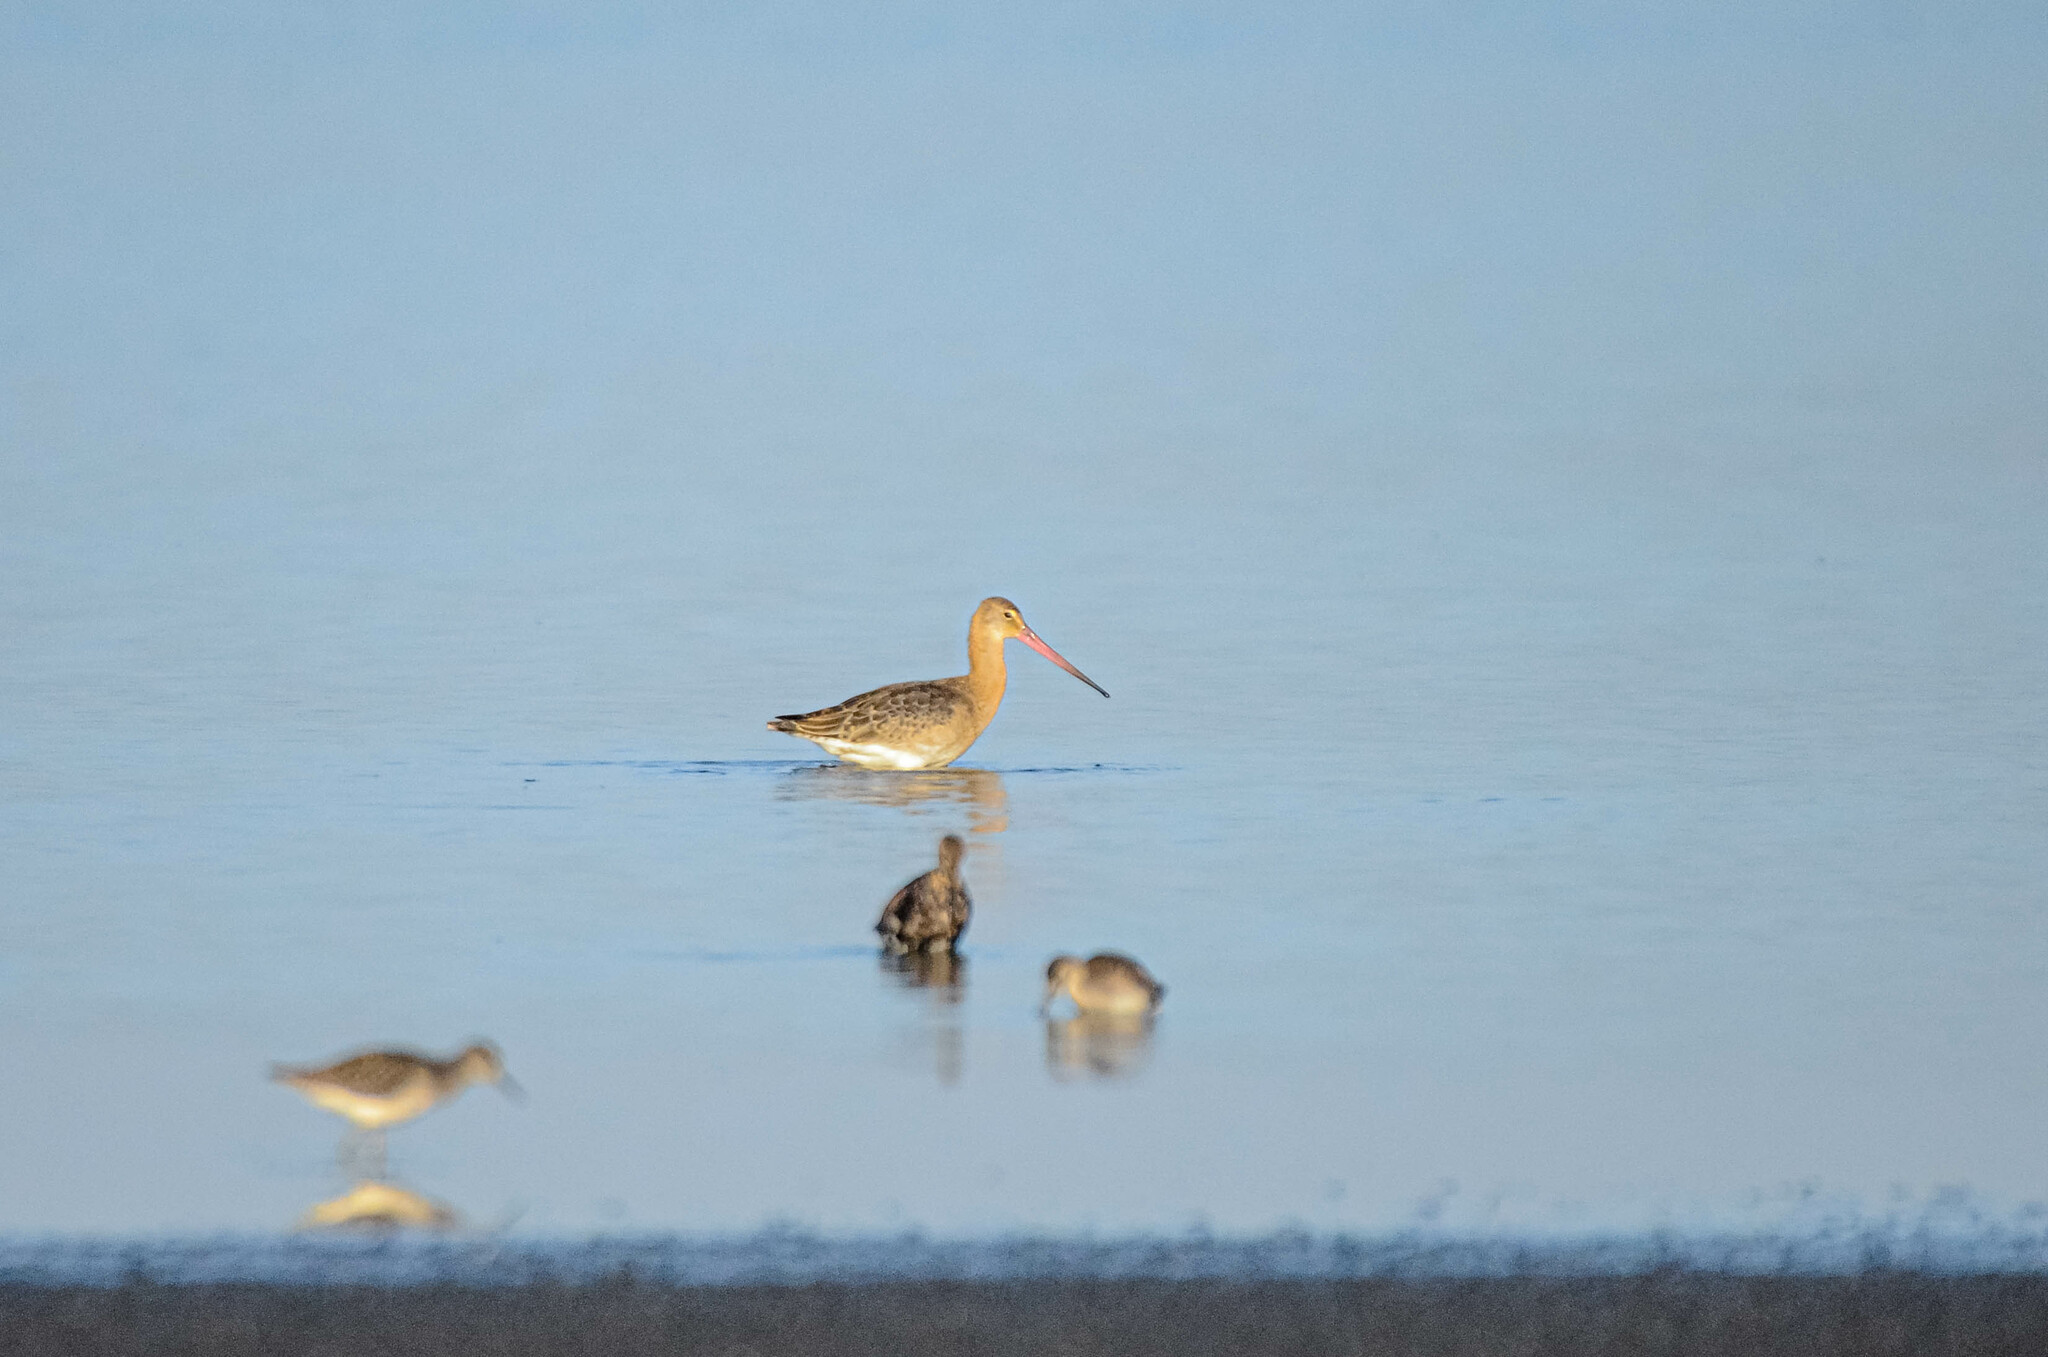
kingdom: Animalia
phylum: Chordata
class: Aves
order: Charadriiformes
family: Scolopacidae
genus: Limosa
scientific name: Limosa limosa
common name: Black-tailed godwit
